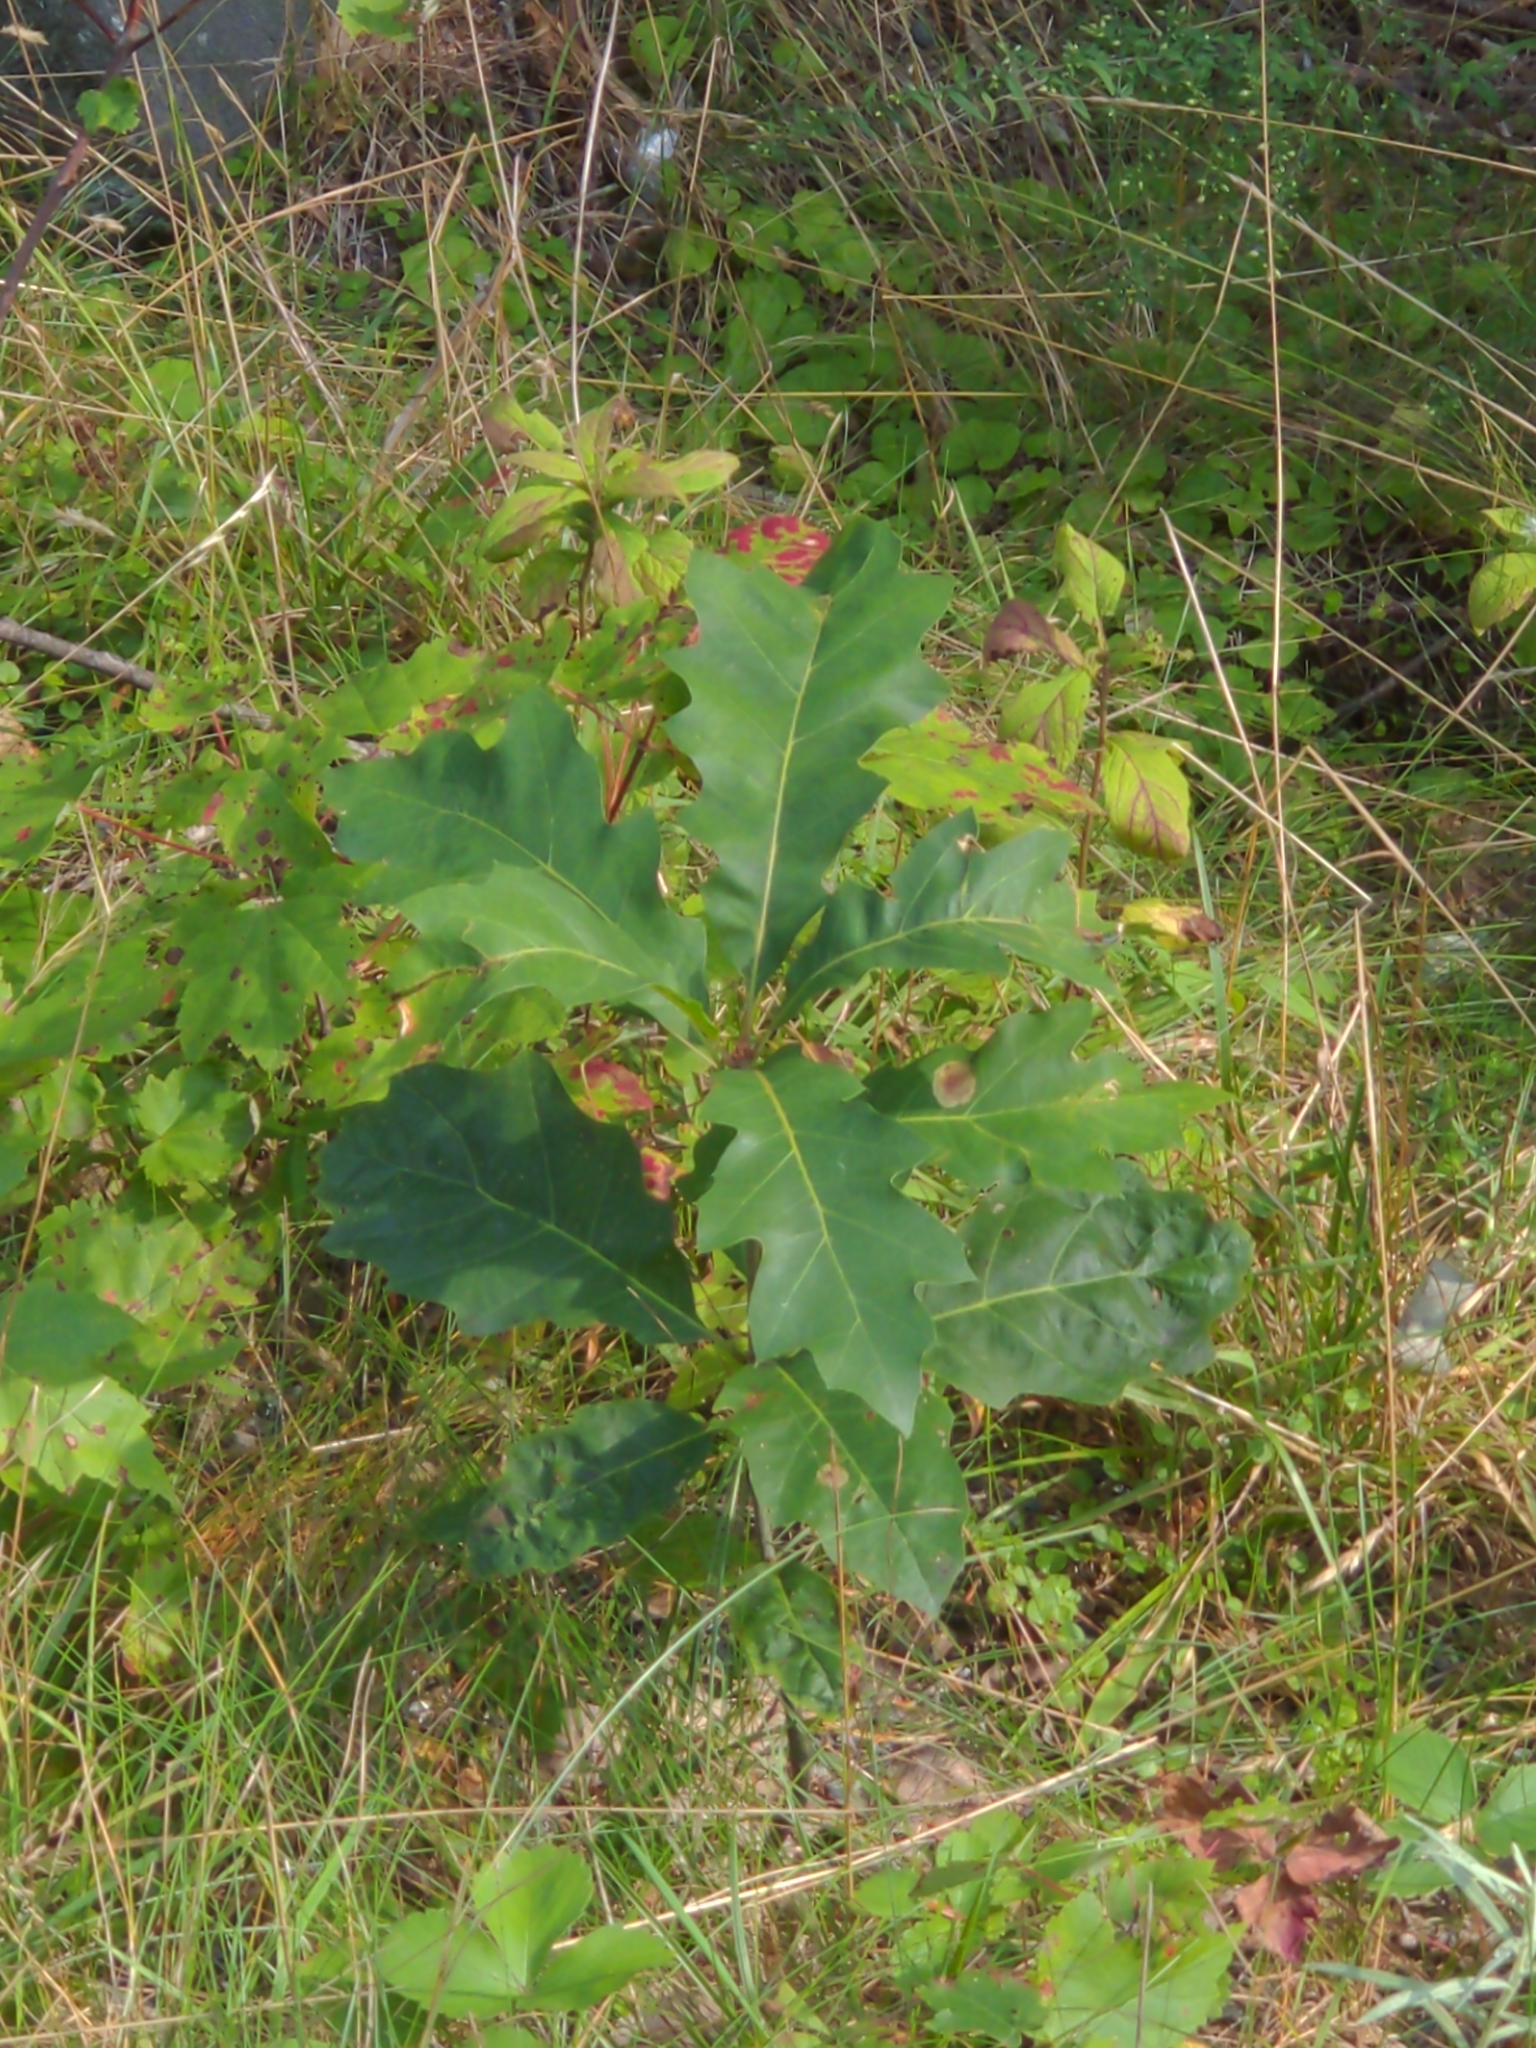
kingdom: Plantae
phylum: Tracheophyta
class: Magnoliopsida
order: Fagales
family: Fagaceae
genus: Quercus
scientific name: Quercus rubra
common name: Red oak
